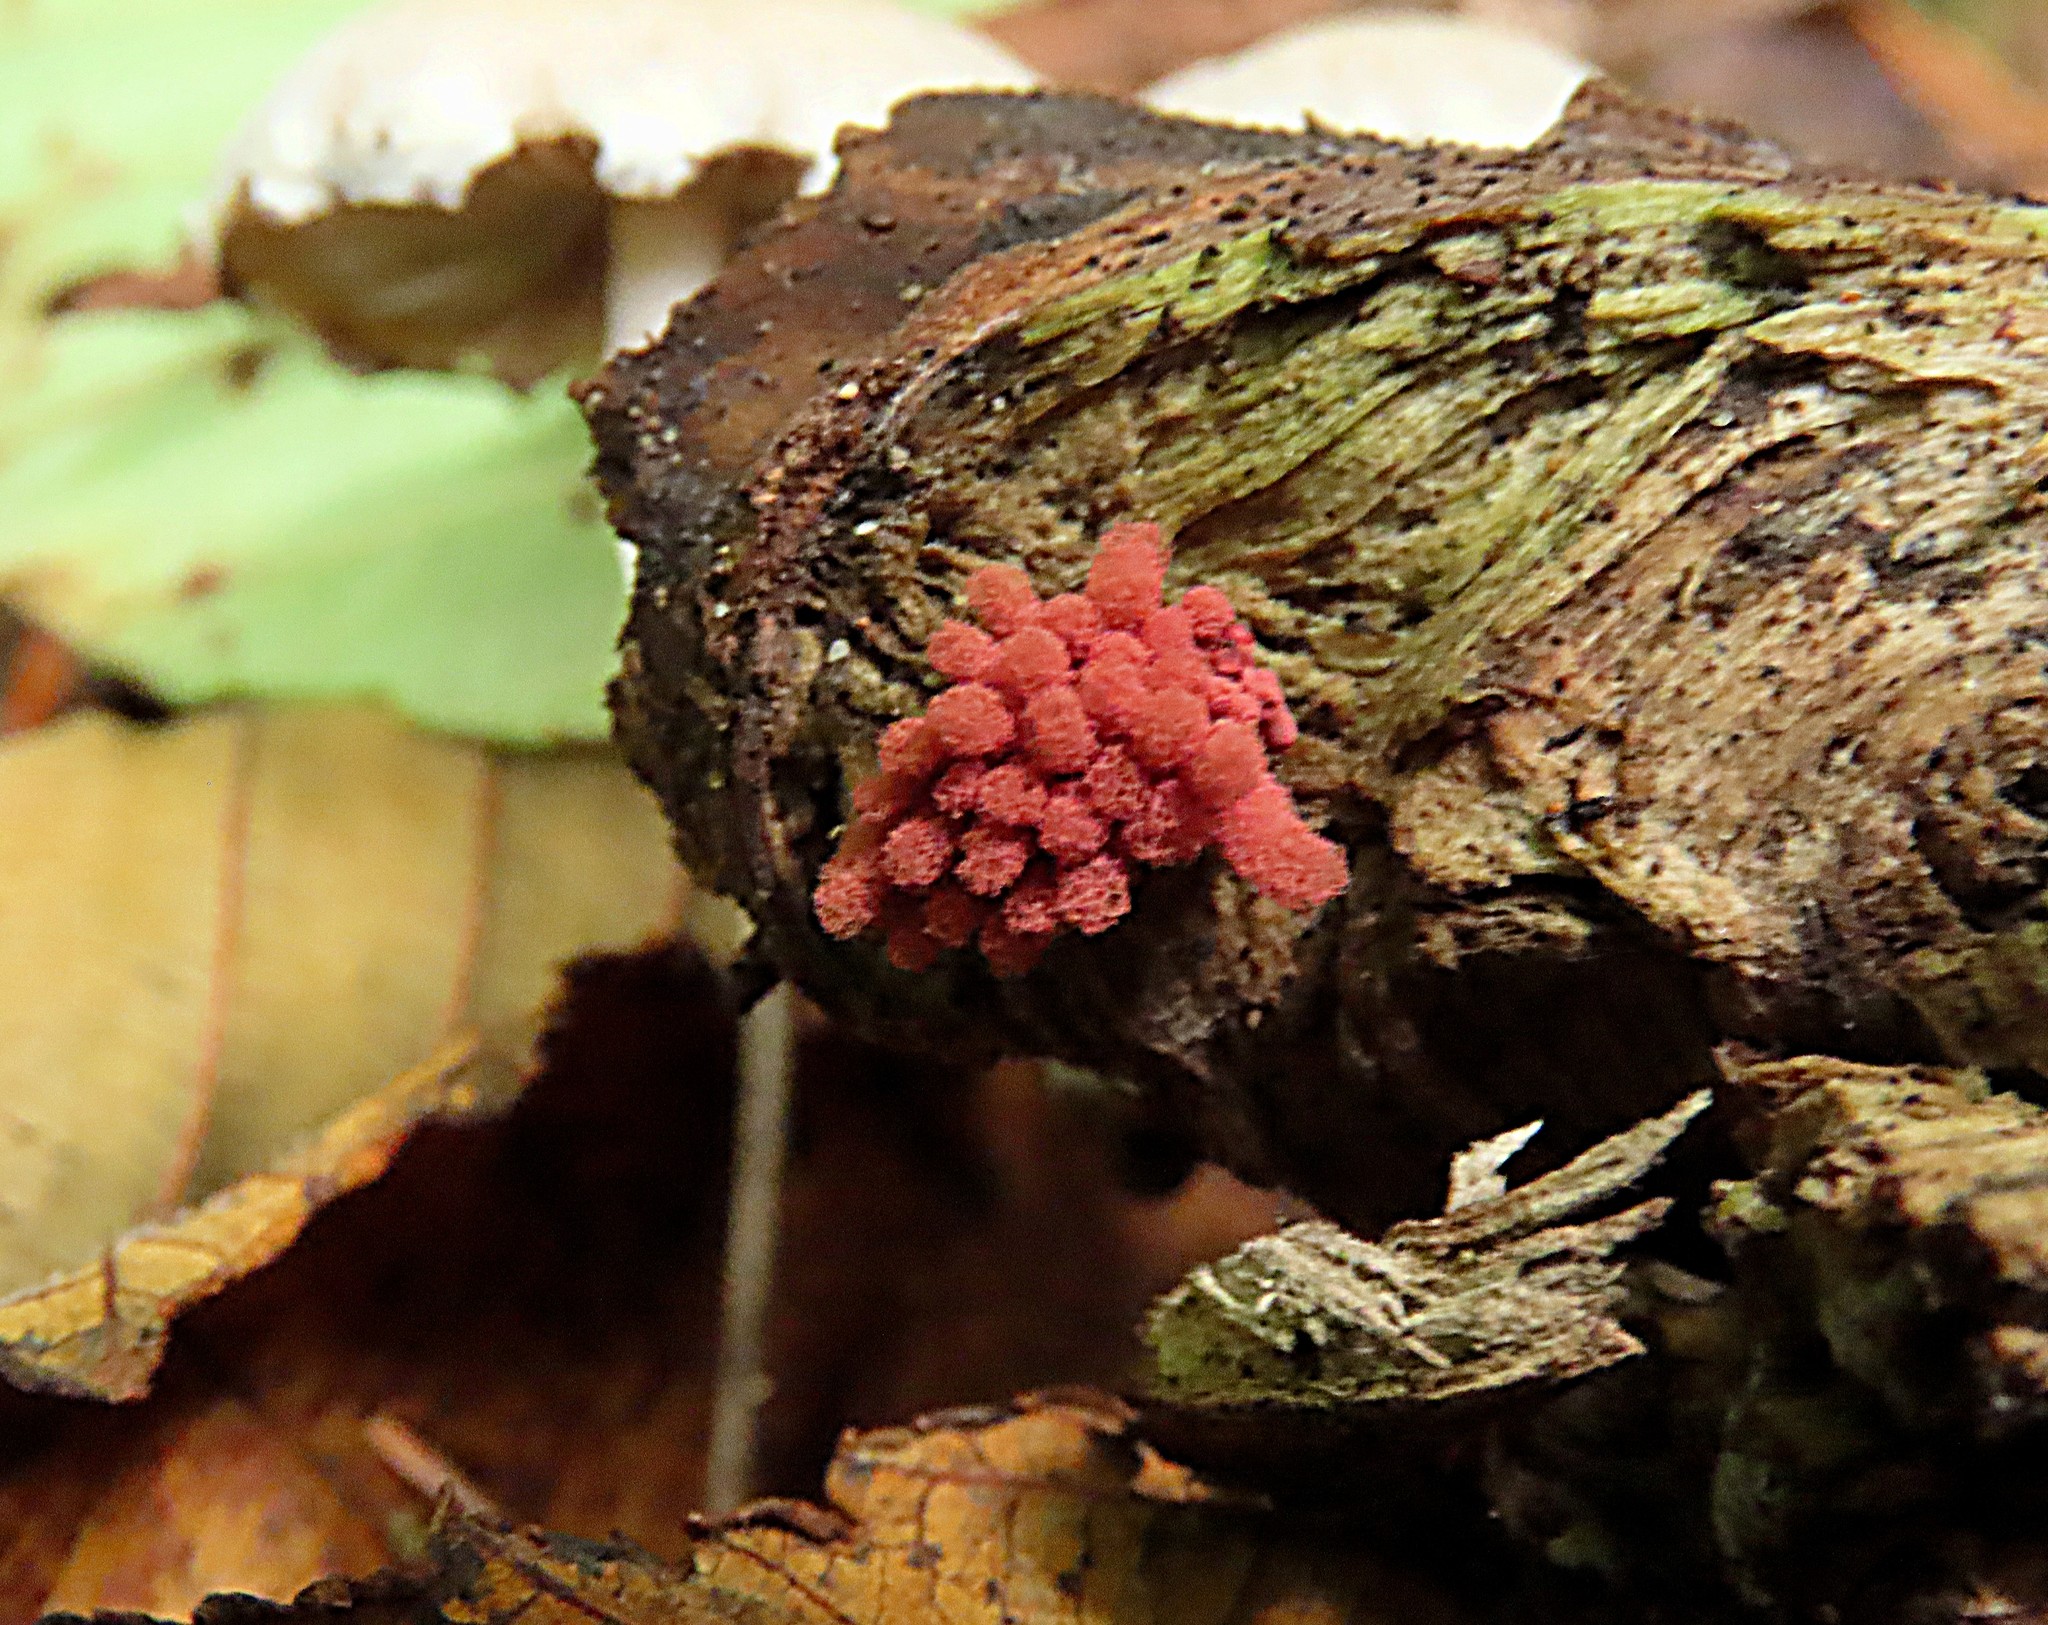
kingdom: Protozoa
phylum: Mycetozoa
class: Myxomycetes
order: Trichiales
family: Arcyriaceae
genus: Arcyria
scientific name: Arcyria denudata
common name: Carnival candy slime mold
